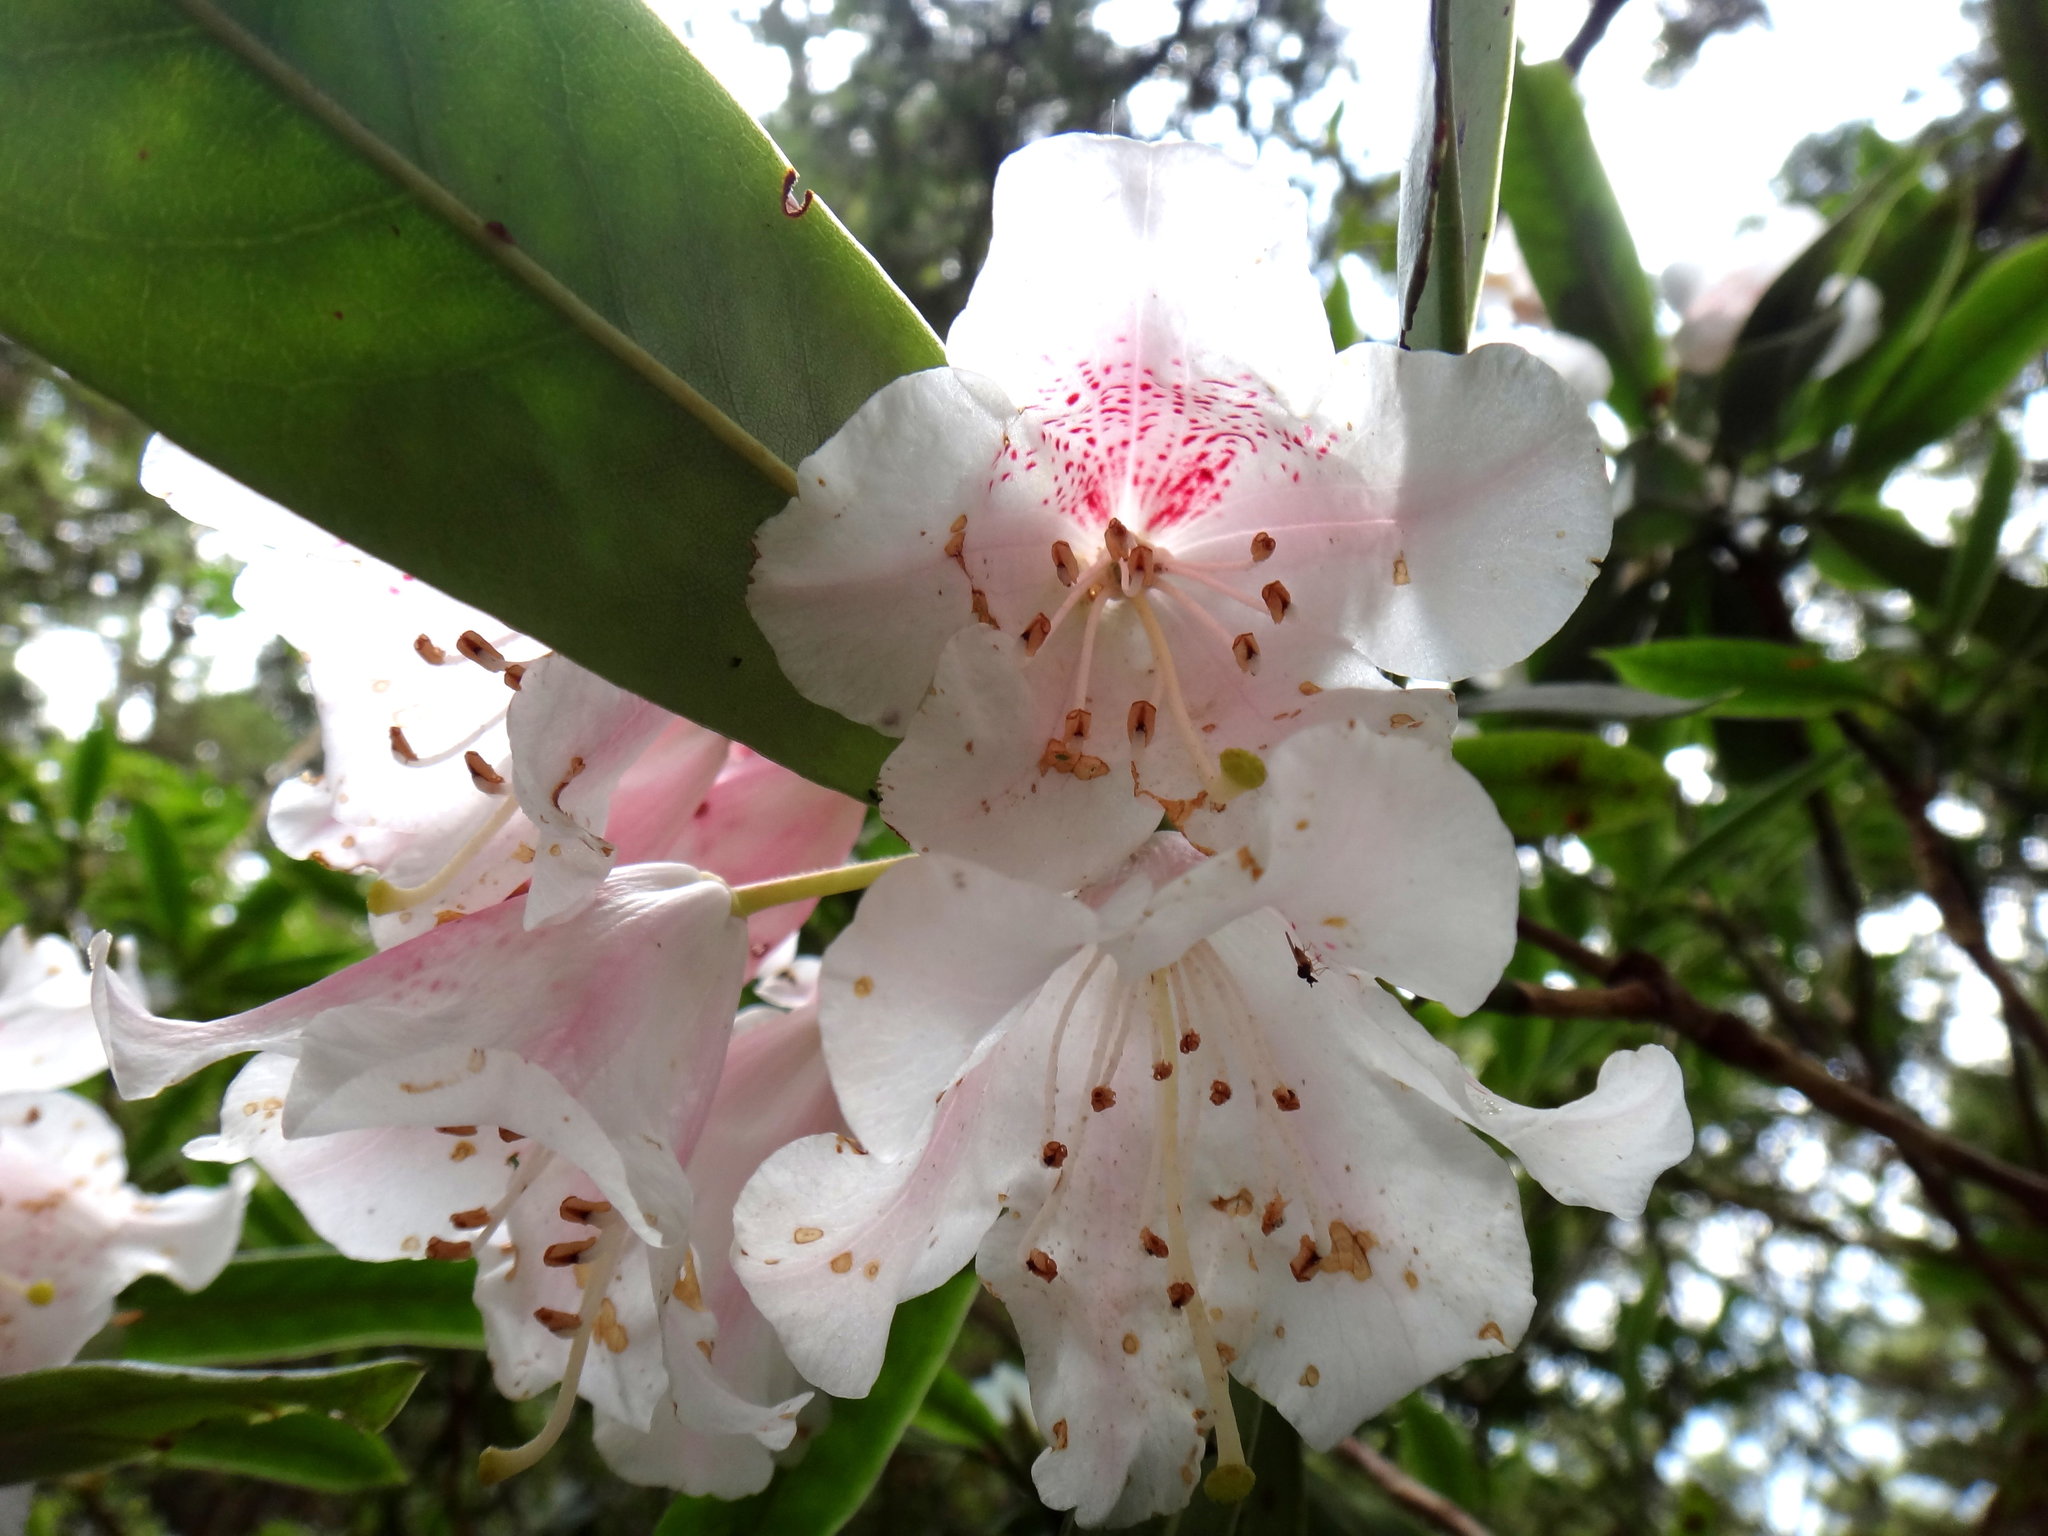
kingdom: Plantae
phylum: Tracheophyta
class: Magnoliopsida
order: Ericales
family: Ericaceae
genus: Rhododendron
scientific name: Rhododendron pseudochrysanthum
